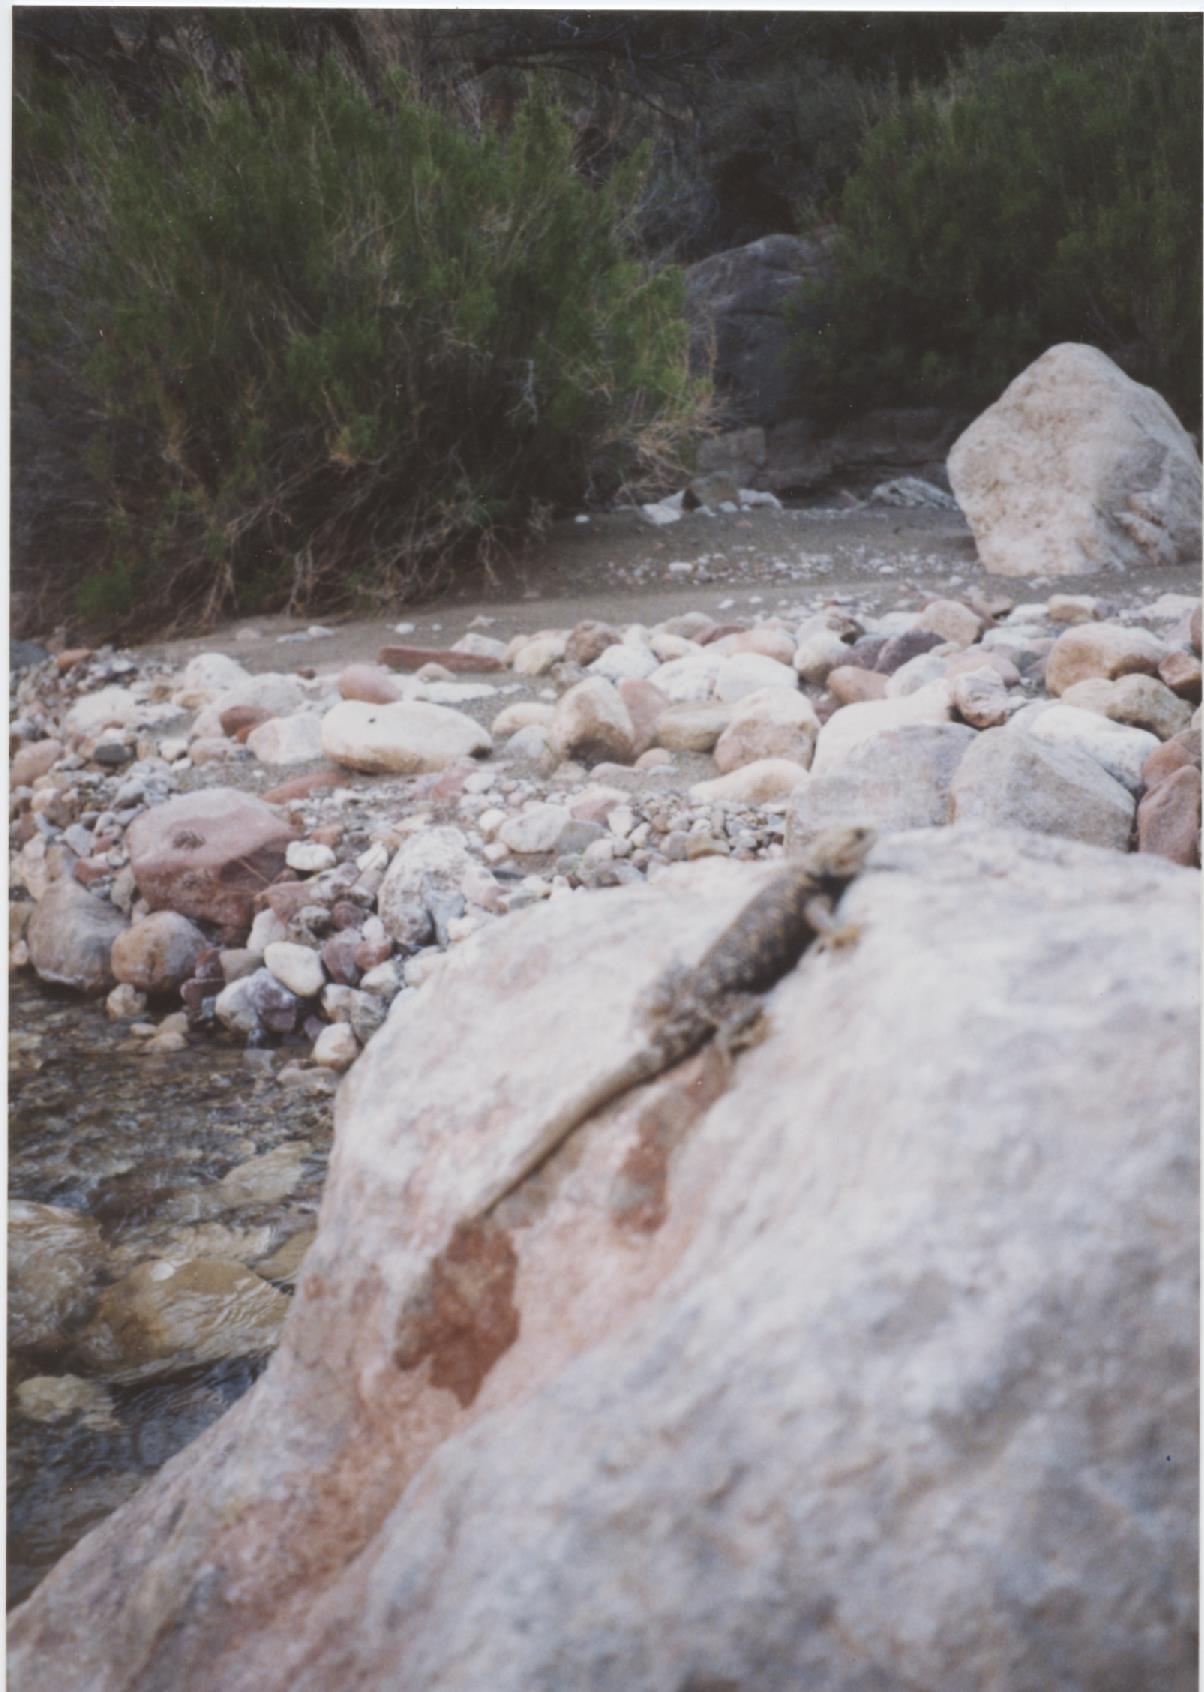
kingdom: Animalia
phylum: Chordata
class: Squamata
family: Phrynosomatidae
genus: Sceloporus
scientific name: Sceloporus magister
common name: Desert spiny lizard
